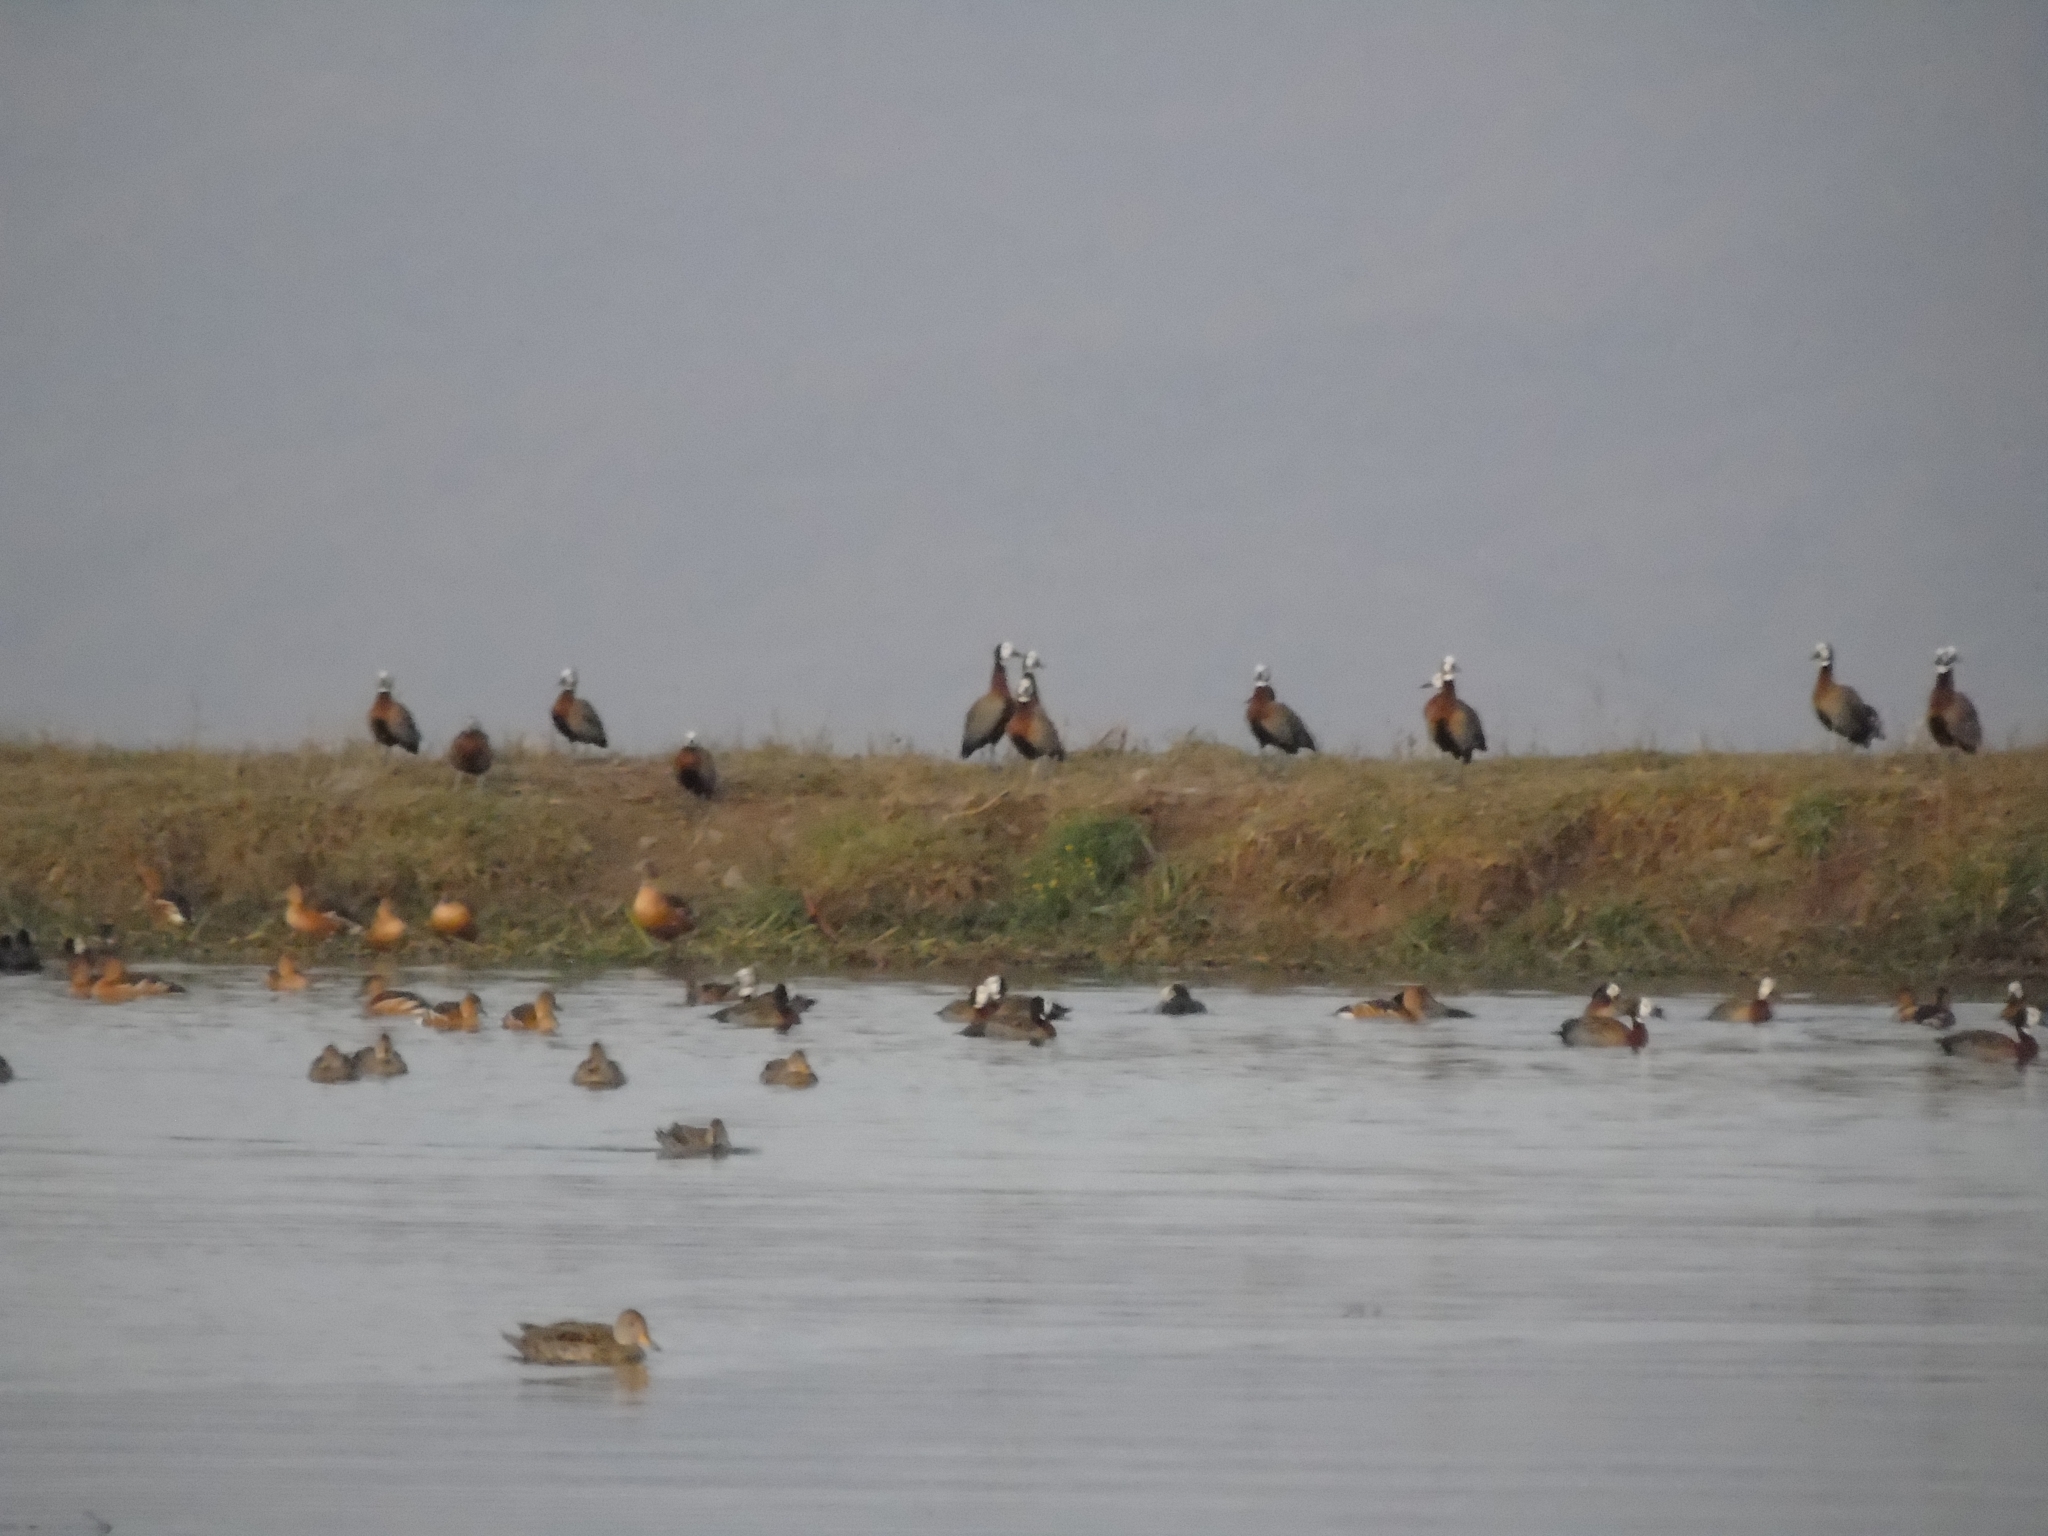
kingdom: Animalia
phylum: Chordata
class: Aves
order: Anseriformes
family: Anatidae
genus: Anas
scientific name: Anas georgica
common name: Yellow-billed pintail
